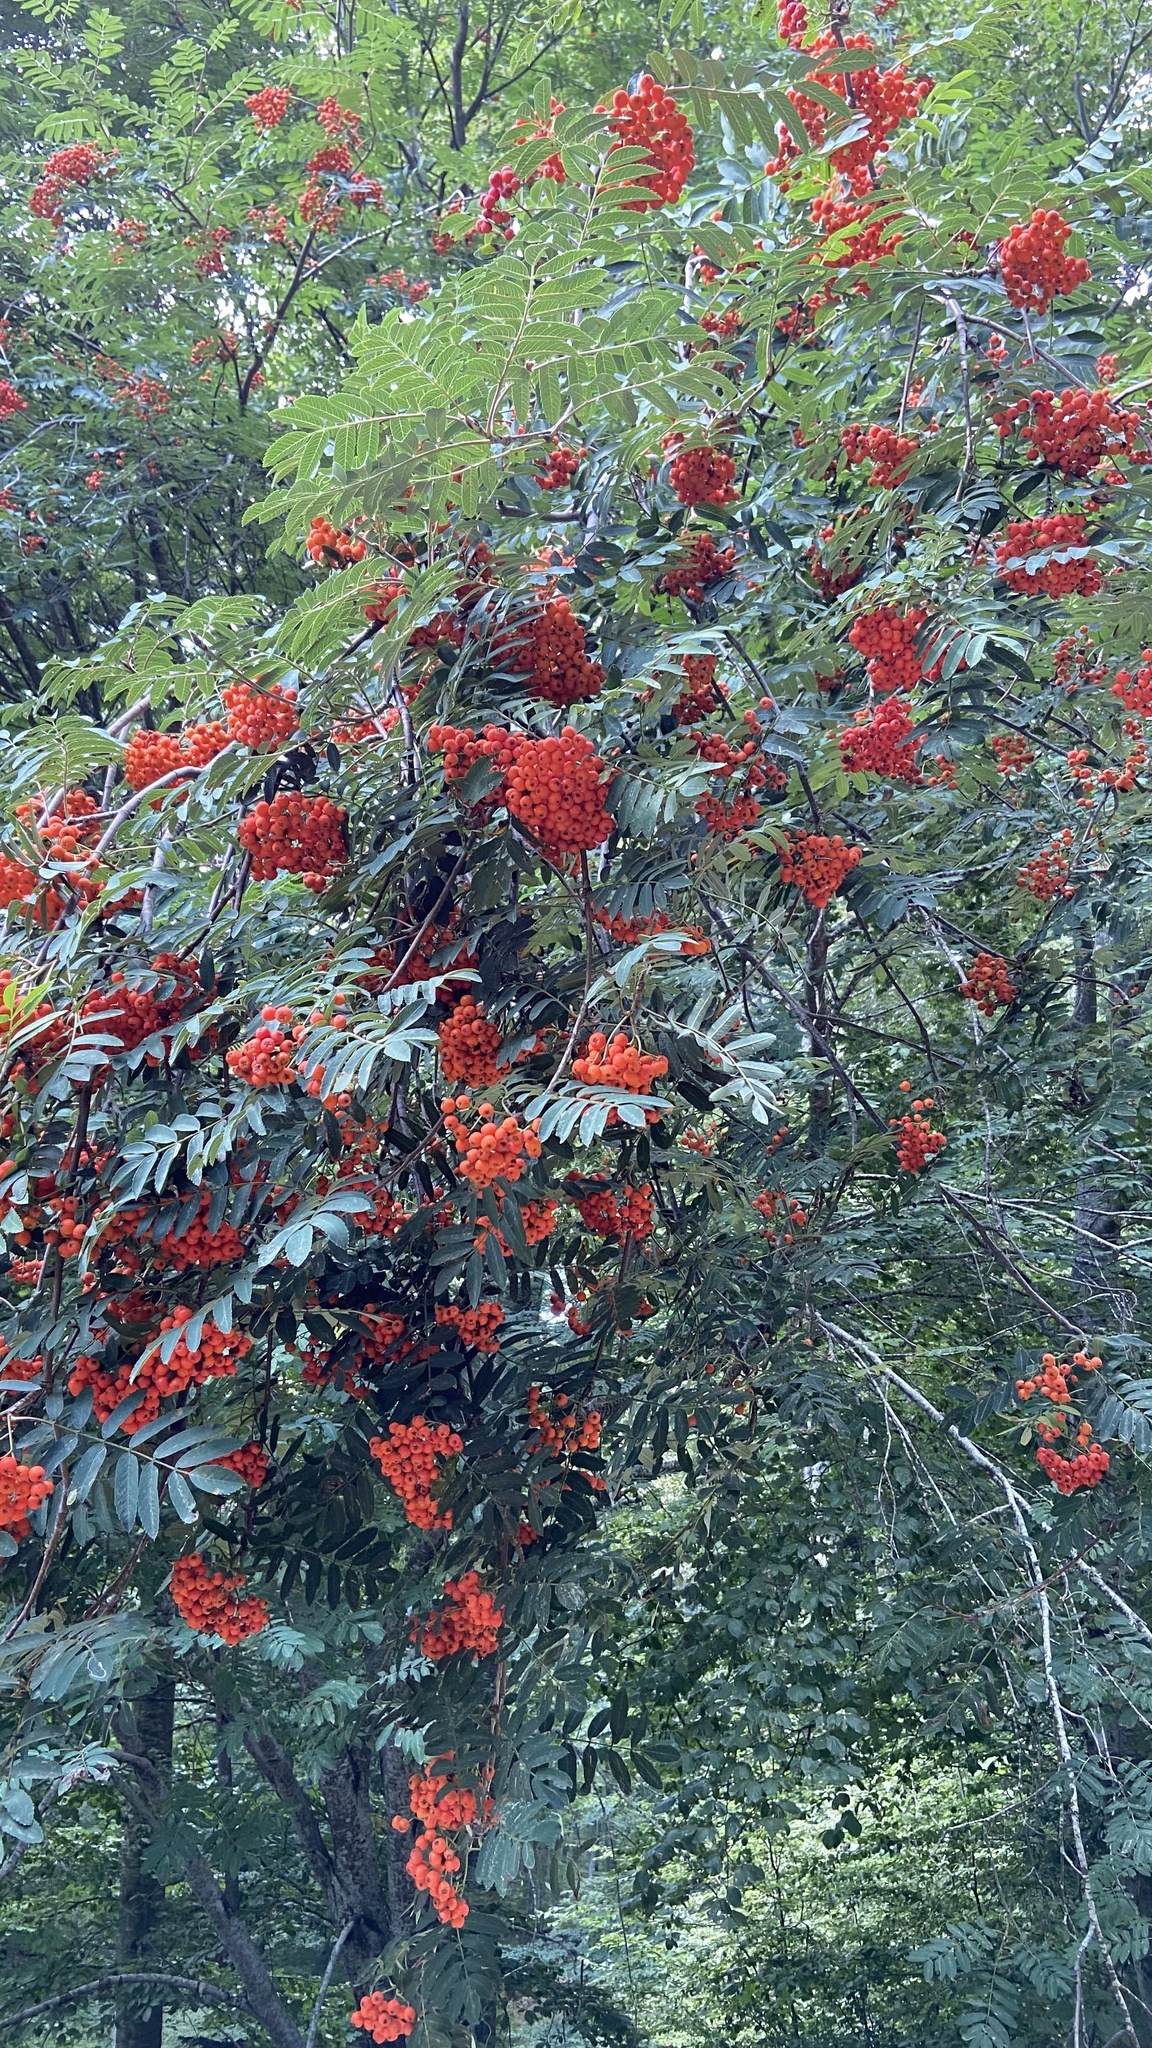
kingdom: Plantae
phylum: Tracheophyta
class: Magnoliopsida
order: Rosales
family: Rosaceae
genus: Sorbus
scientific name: Sorbus aucuparia
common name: Rowan
